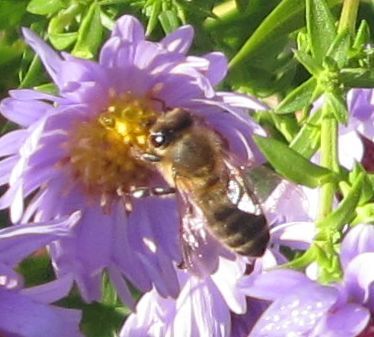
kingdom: Animalia
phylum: Arthropoda
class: Insecta
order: Hymenoptera
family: Apidae
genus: Apis
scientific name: Apis mellifera
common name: Honey bee
